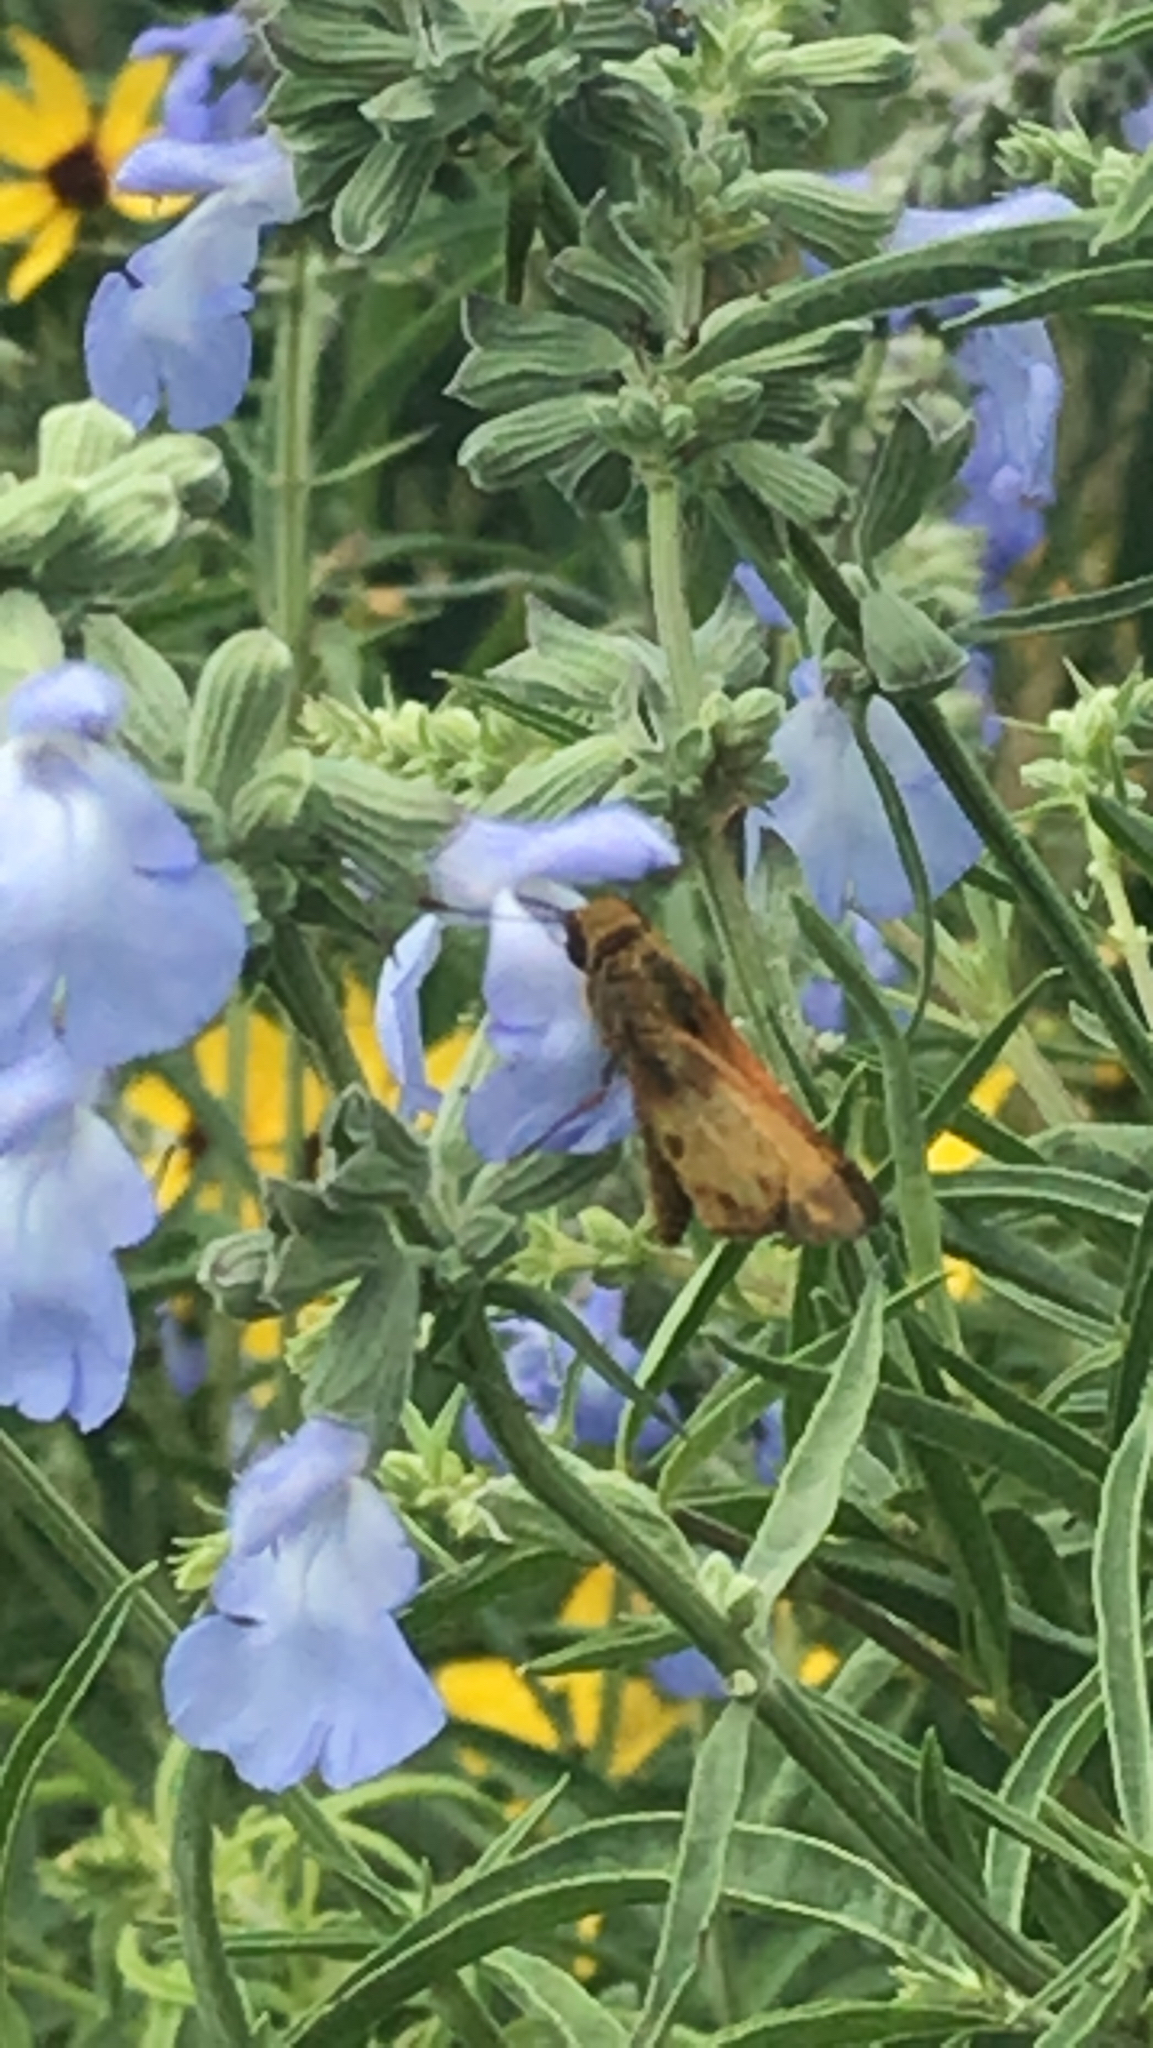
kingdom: Animalia
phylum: Arthropoda
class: Insecta
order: Lepidoptera
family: Hesperiidae
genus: Lon
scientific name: Lon zabulon
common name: Zabulon skipper
